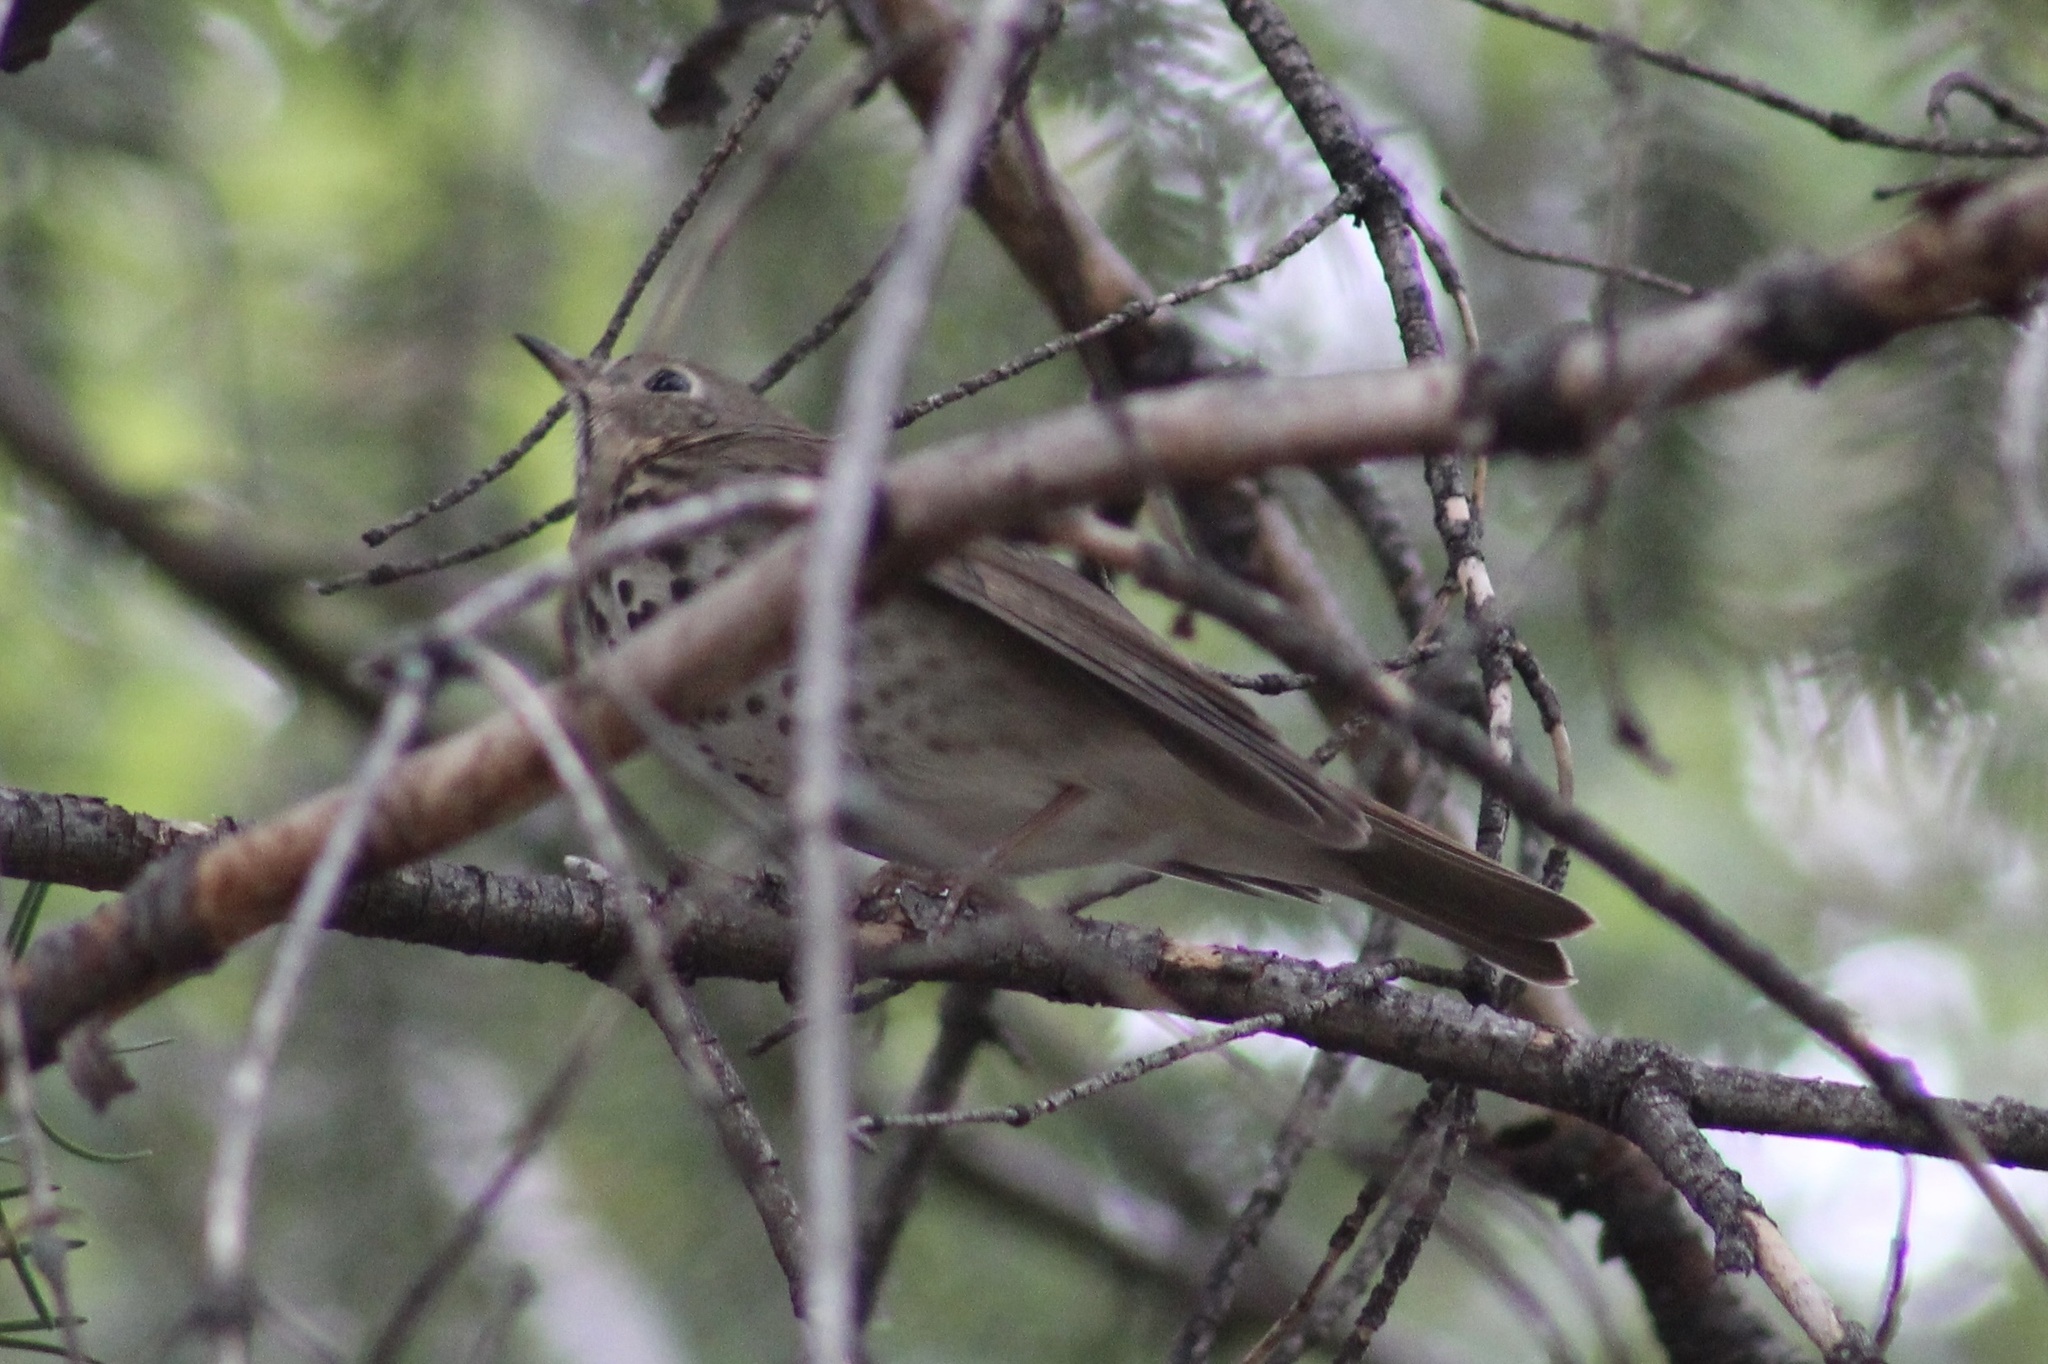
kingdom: Animalia
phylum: Chordata
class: Aves
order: Passeriformes
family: Turdidae
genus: Catharus
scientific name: Catharus guttatus
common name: Hermit thrush
